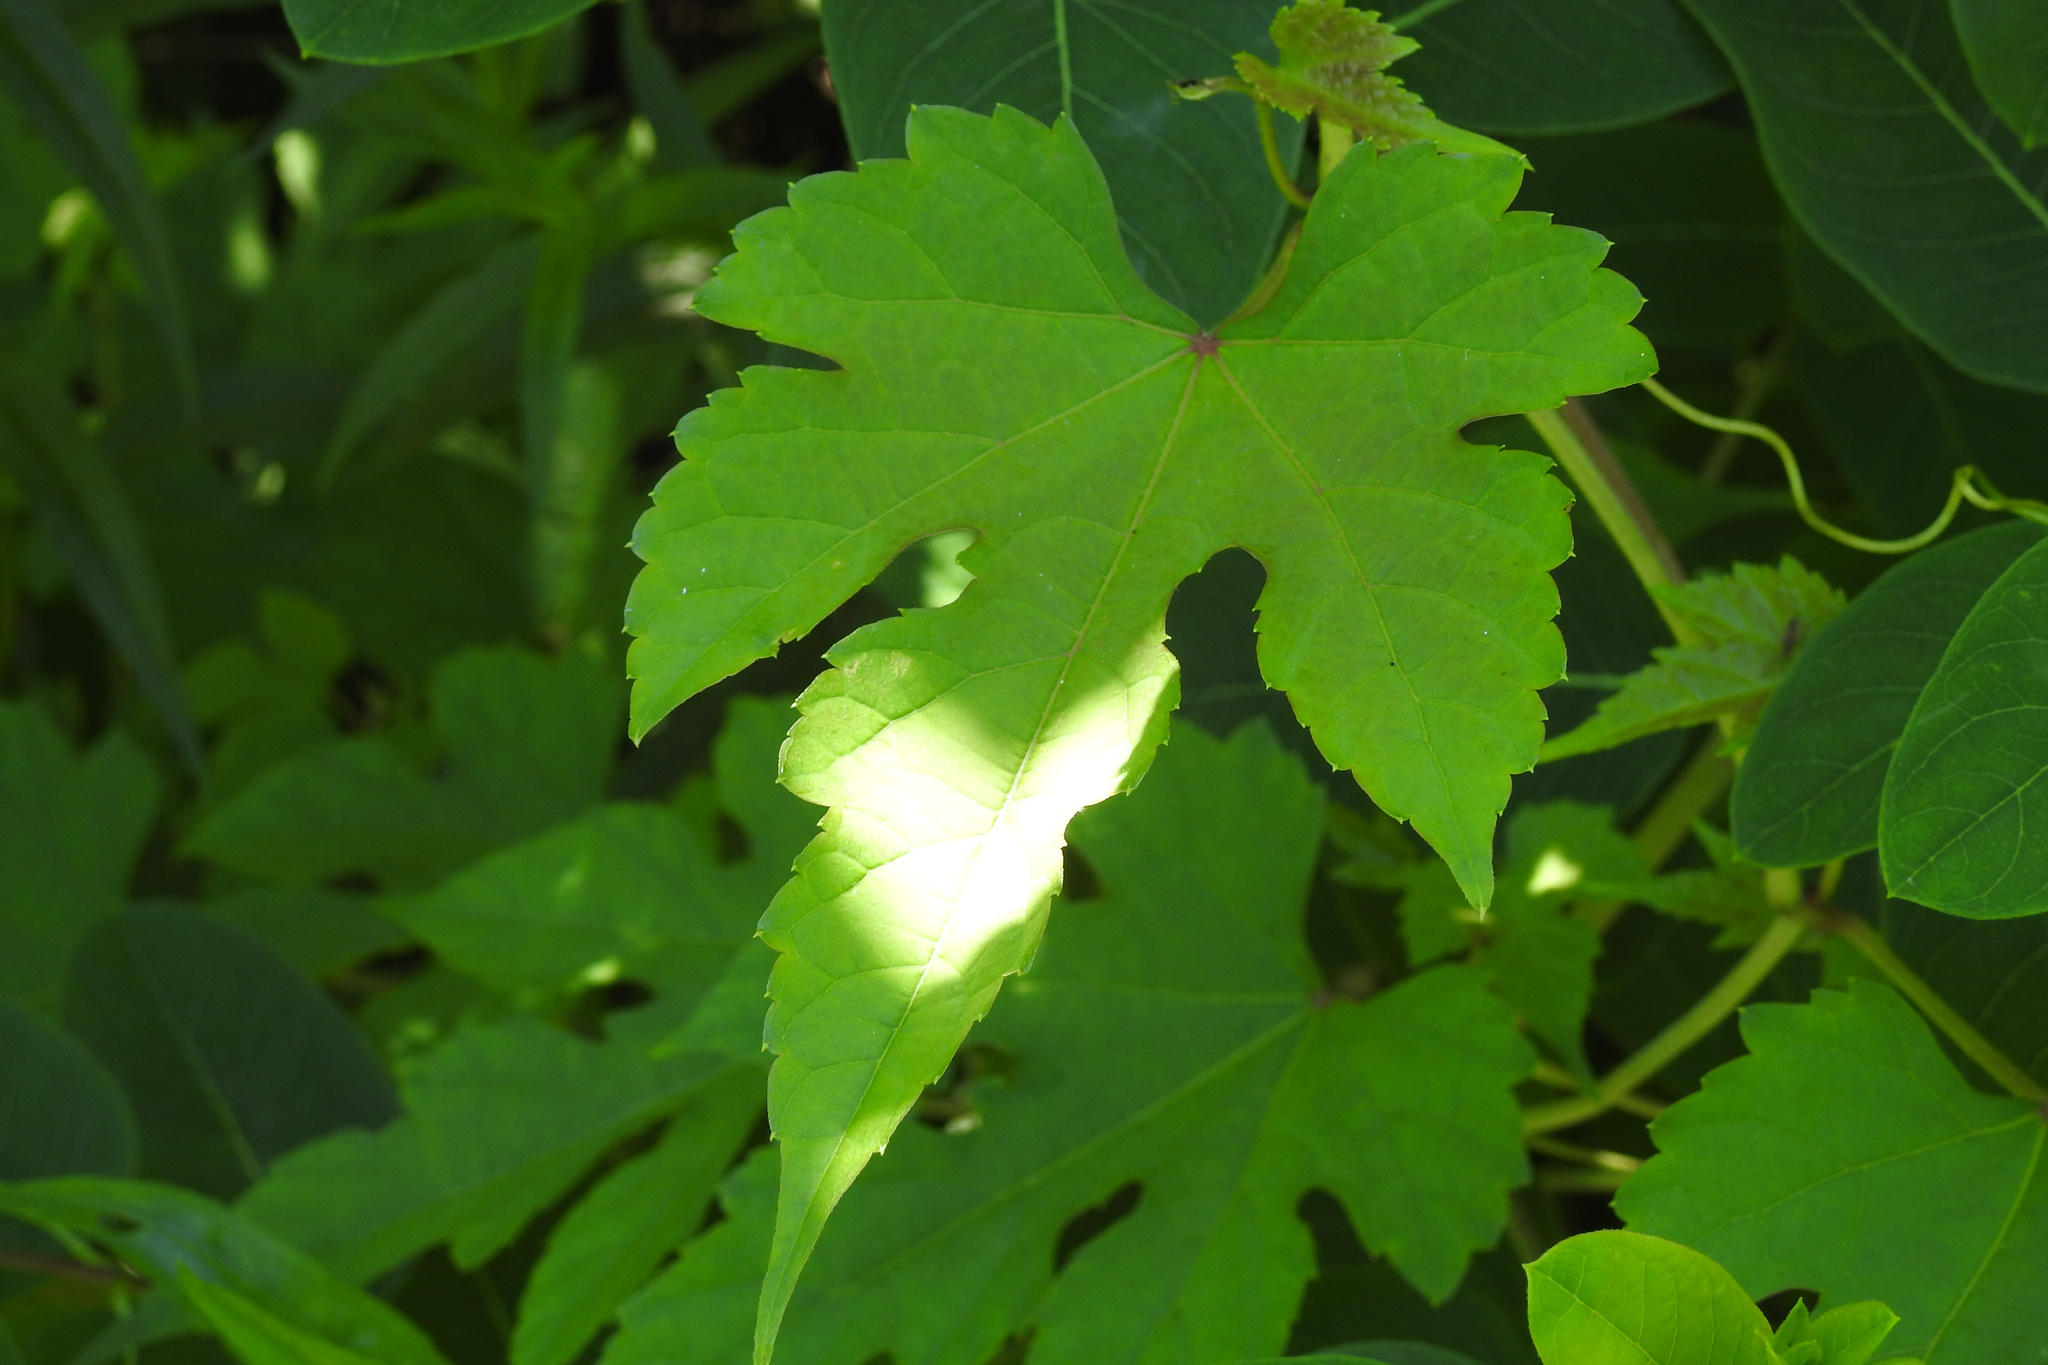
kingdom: Plantae
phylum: Tracheophyta
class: Magnoliopsida
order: Vitales
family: Vitaceae
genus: Ampelopsis
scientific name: Ampelopsis glandulosa
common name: Amur peppervine
